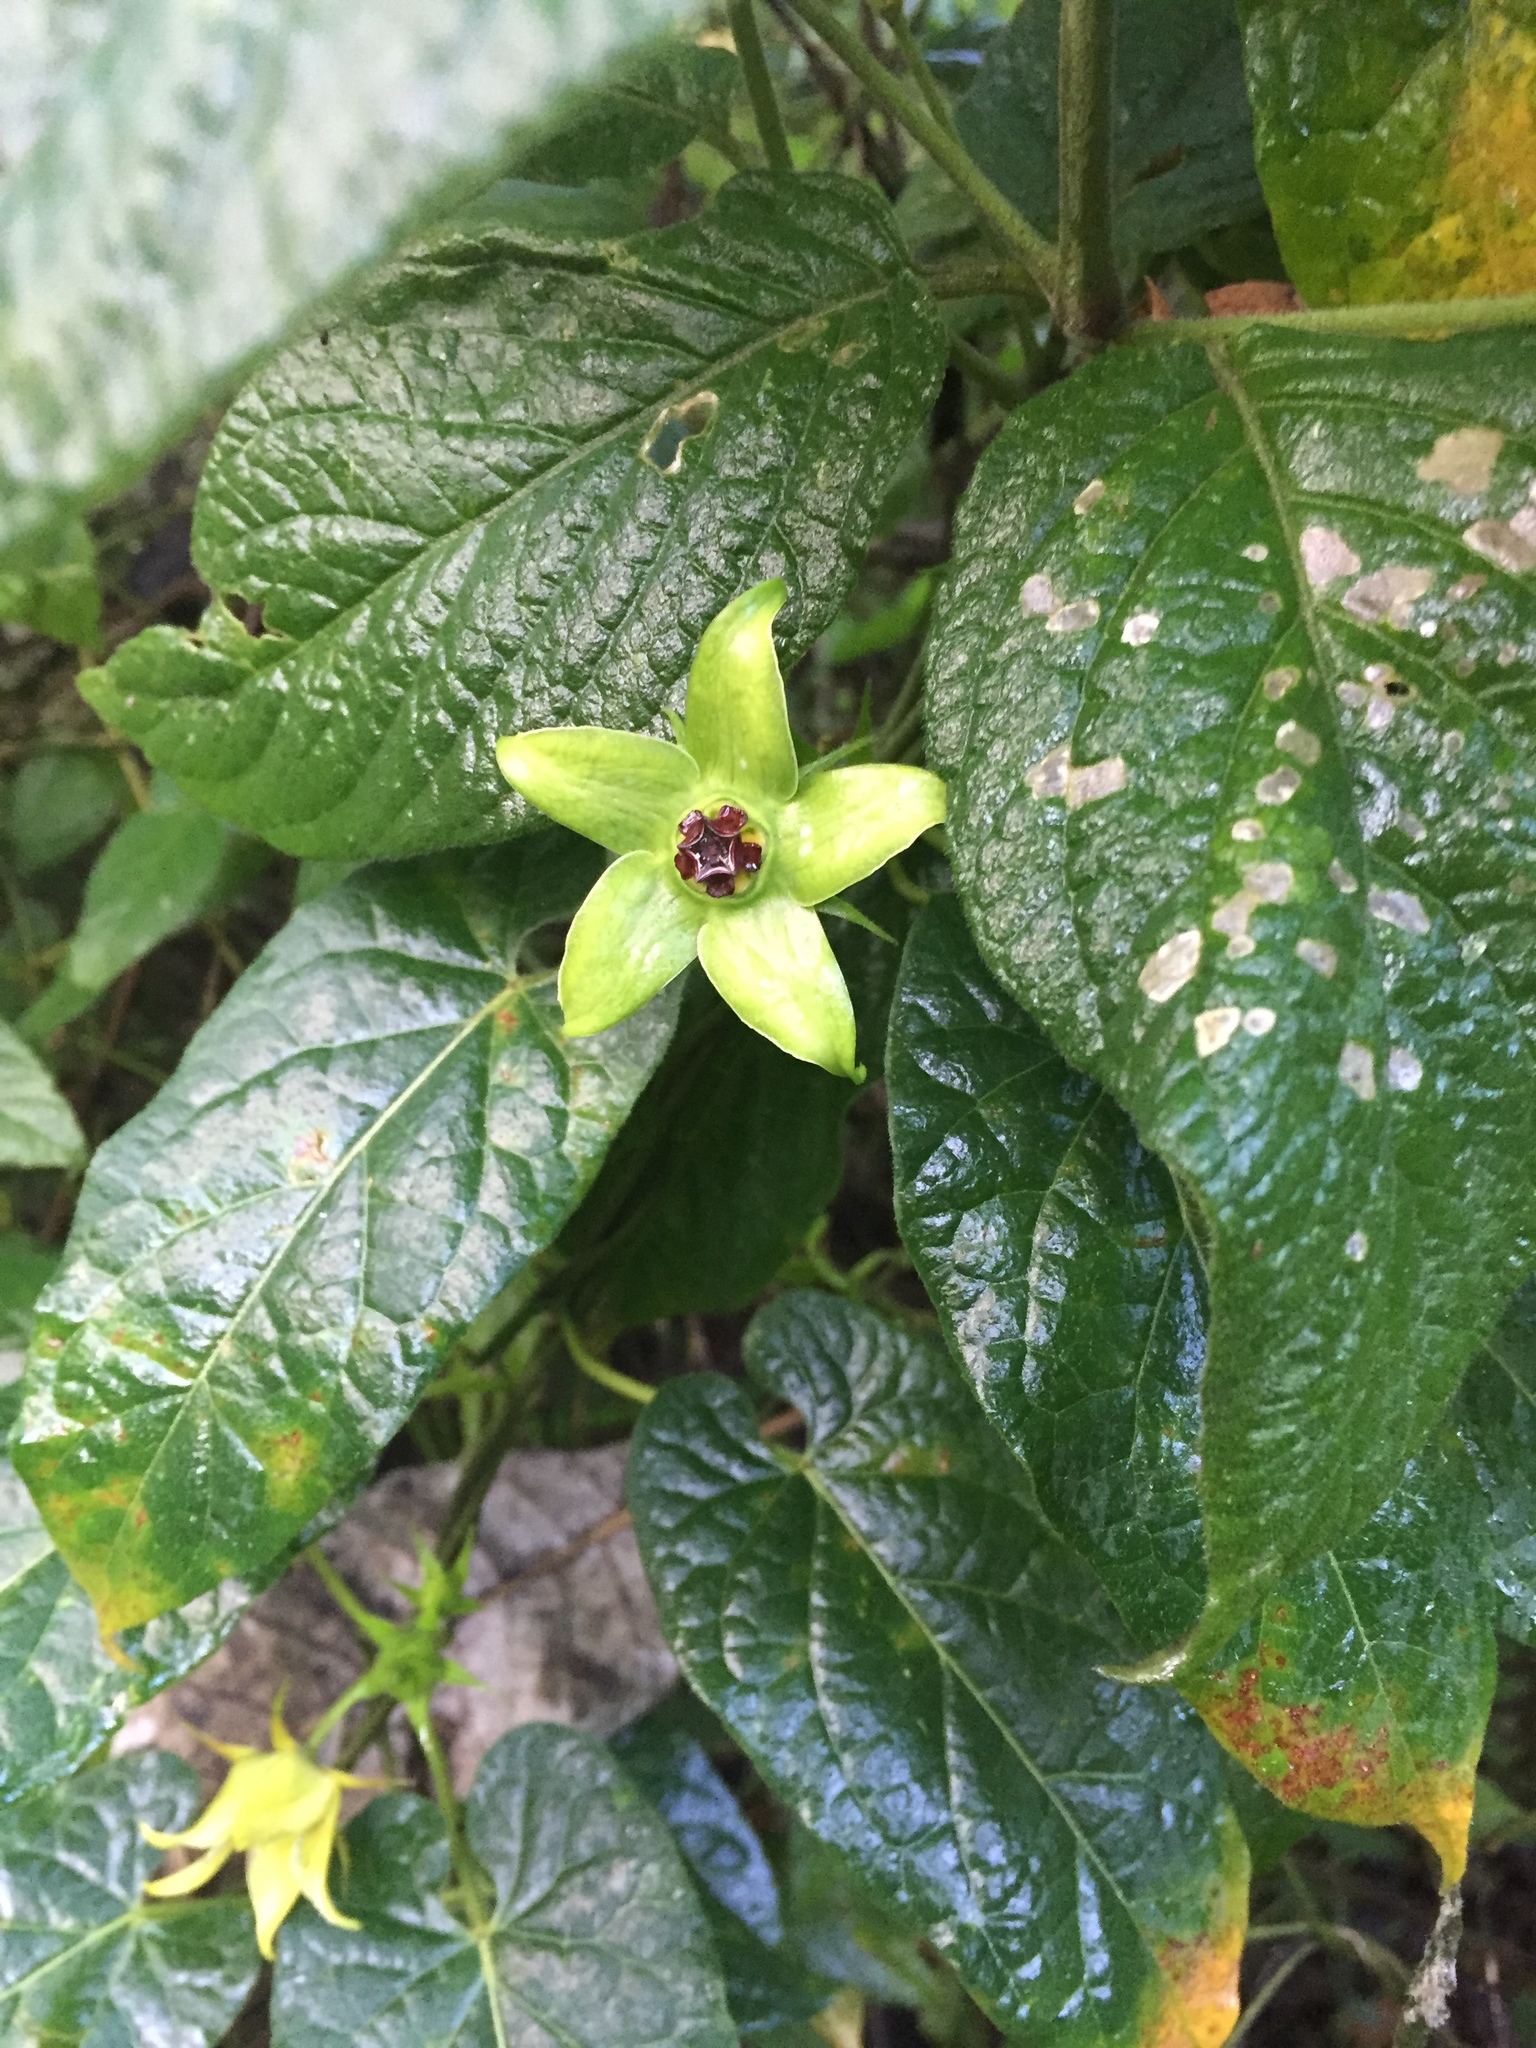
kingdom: Plantae
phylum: Tracheophyta
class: Magnoliopsida
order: Gentianales
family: Apocynaceae
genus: Gonolobus
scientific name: Gonolobus uniflorus
